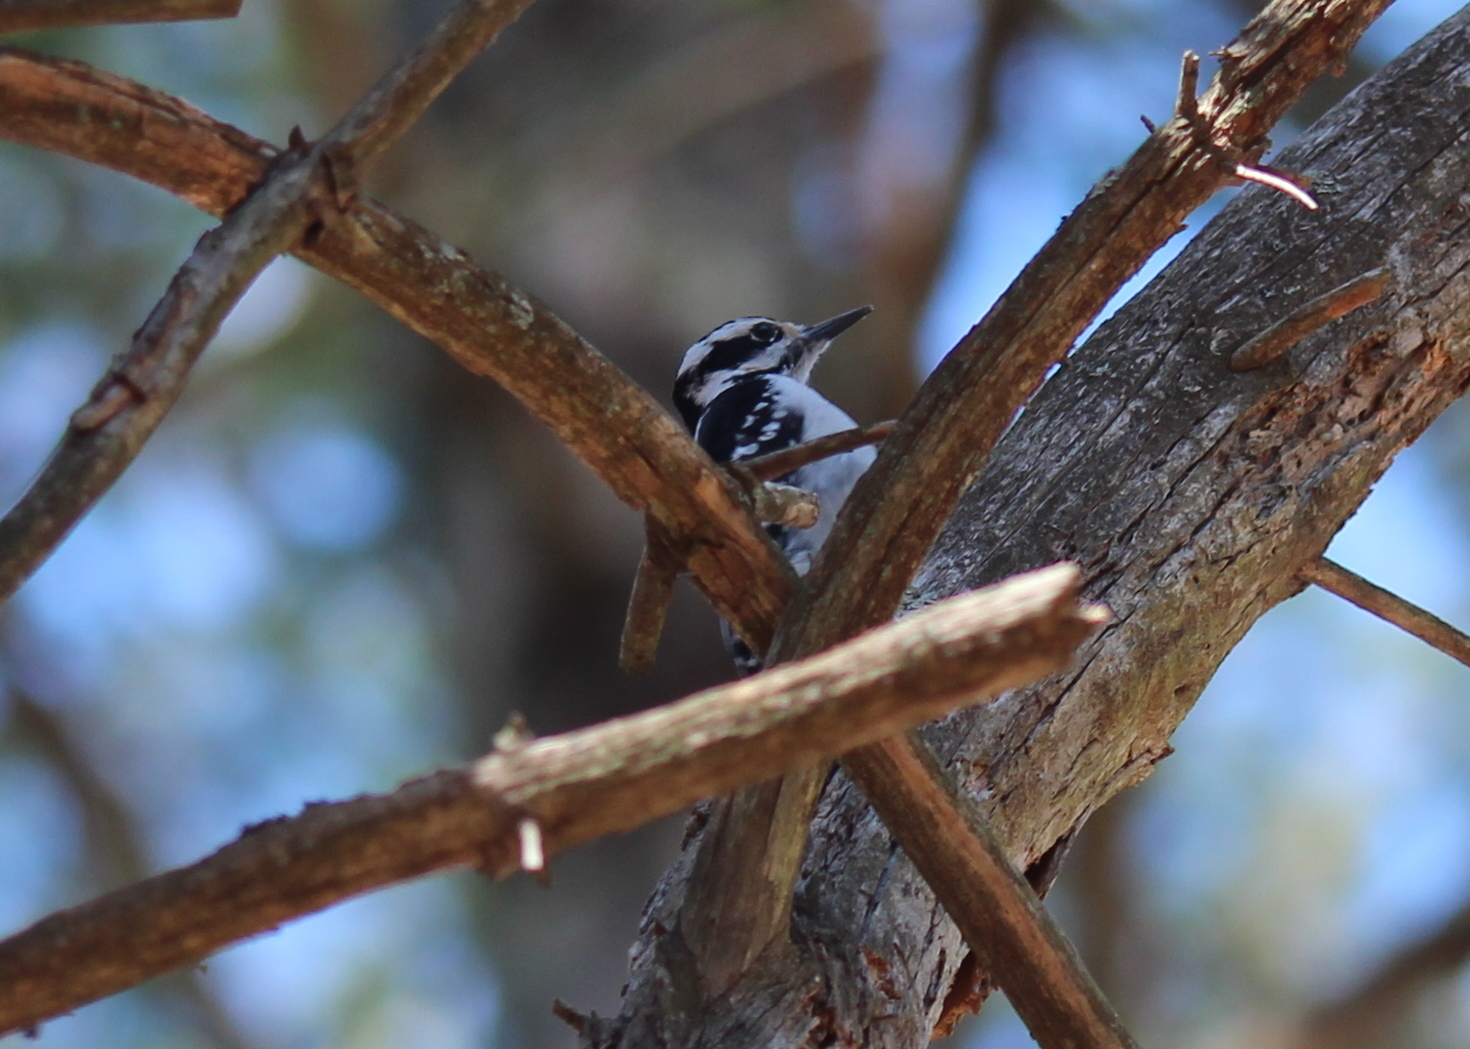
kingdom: Animalia
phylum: Chordata
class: Aves
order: Piciformes
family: Picidae
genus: Leuconotopicus
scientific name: Leuconotopicus villosus
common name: Hairy woodpecker
